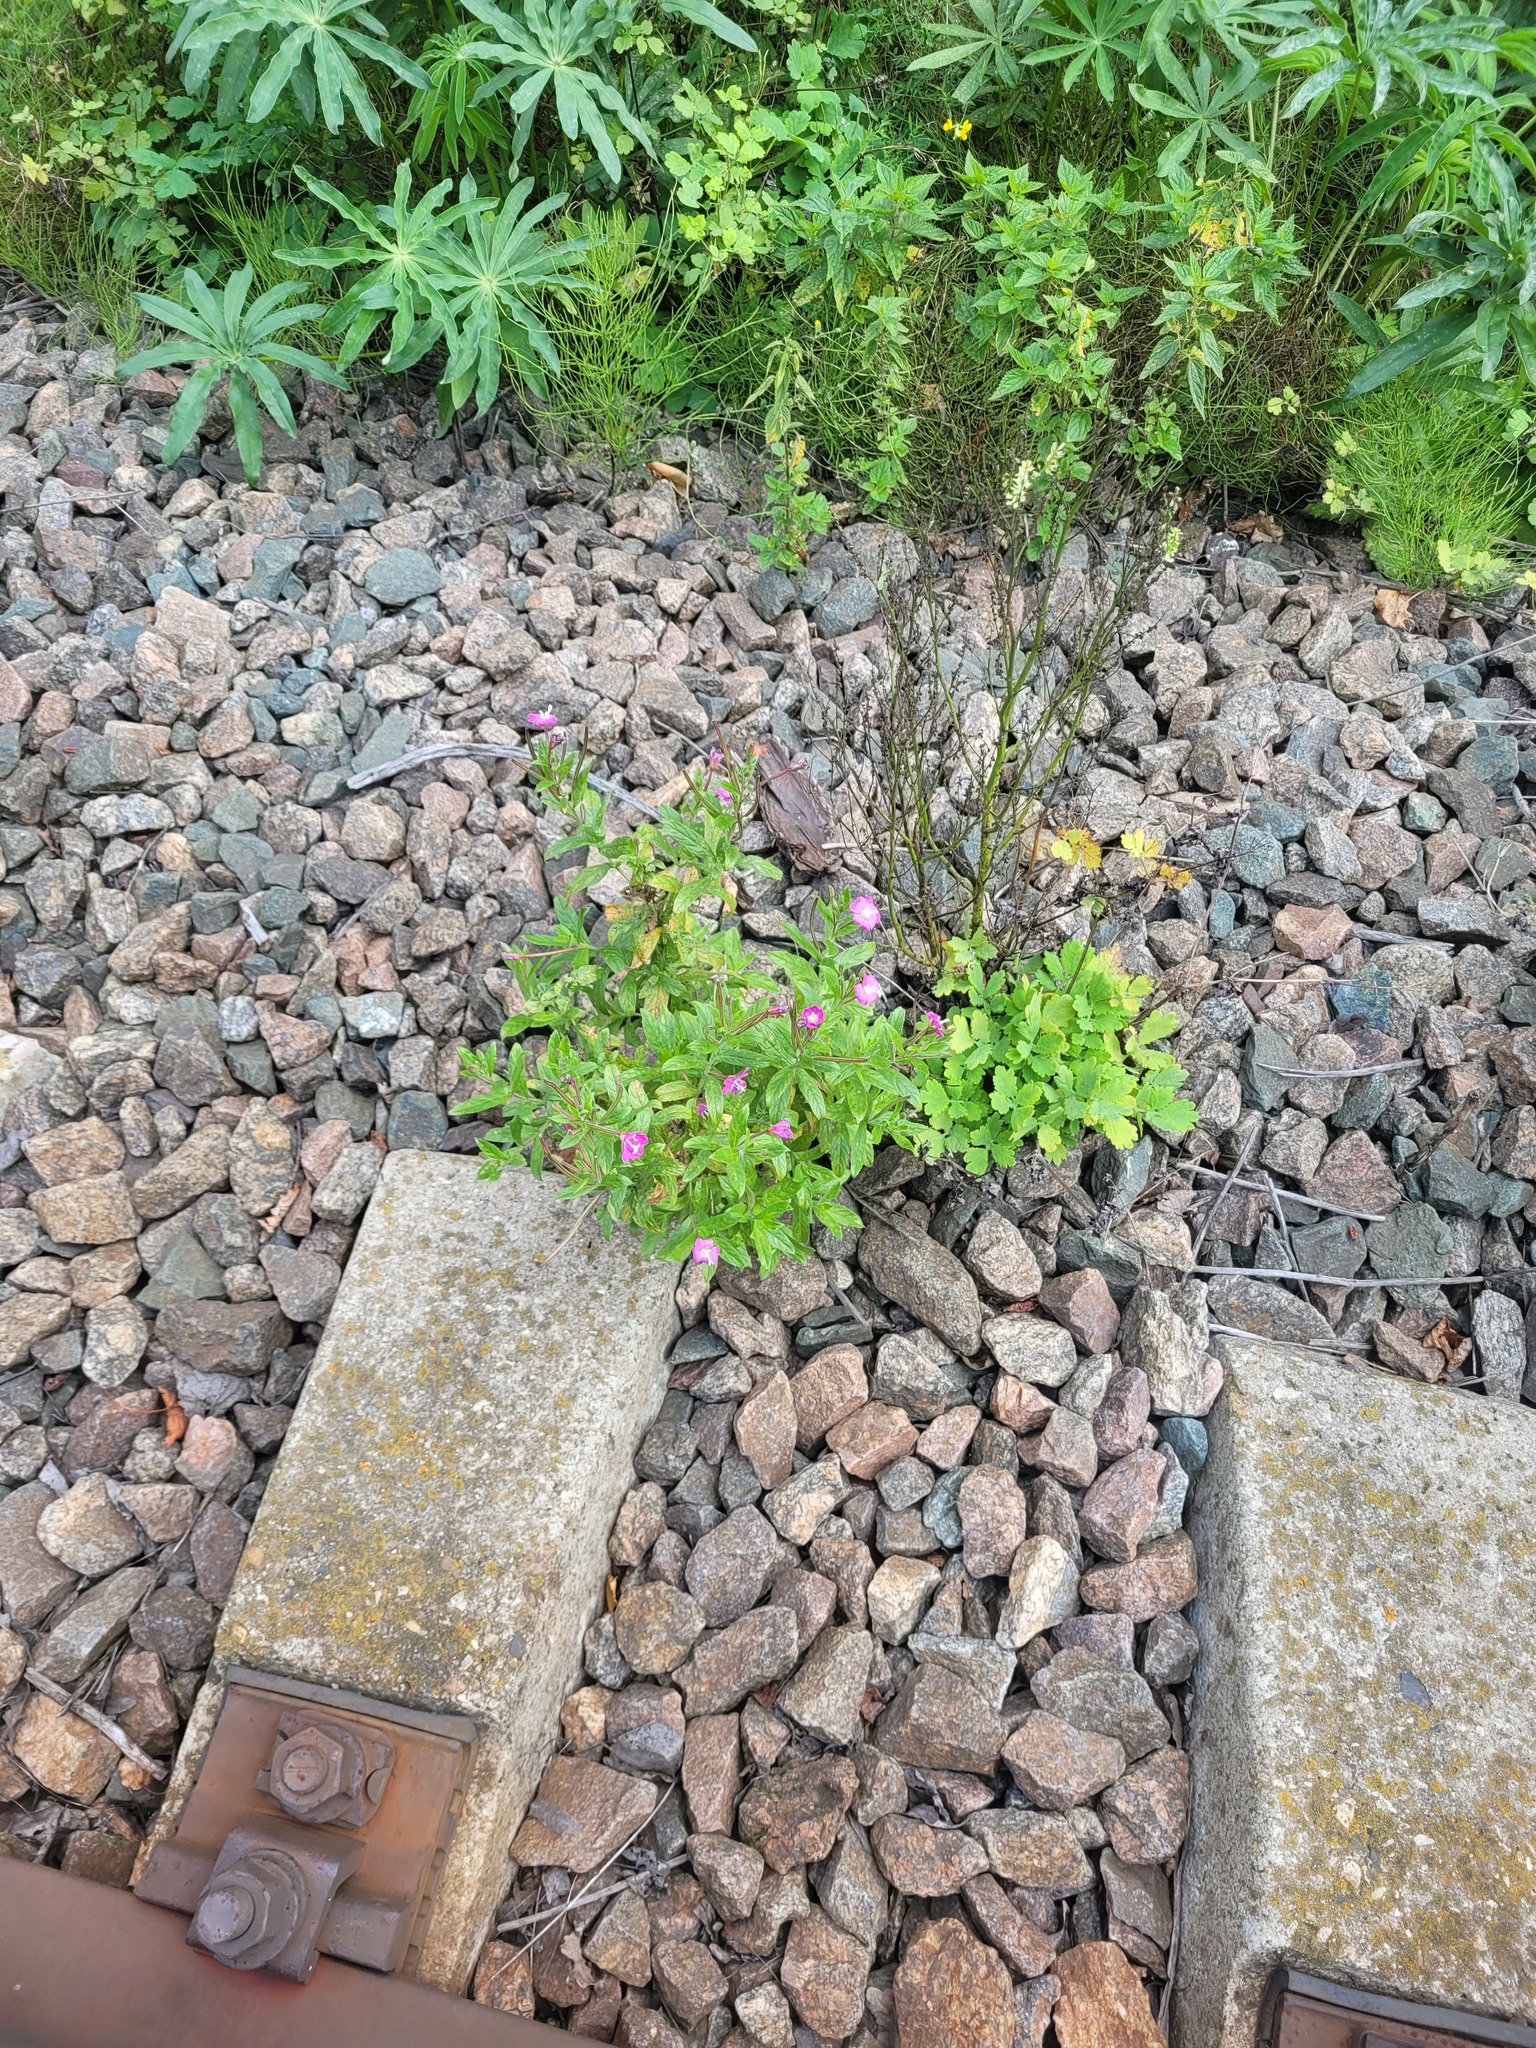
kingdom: Plantae
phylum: Tracheophyta
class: Magnoliopsida
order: Myrtales
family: Onagraceae
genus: Epilobium
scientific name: Epilobium hirsutum
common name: Great willowherb
